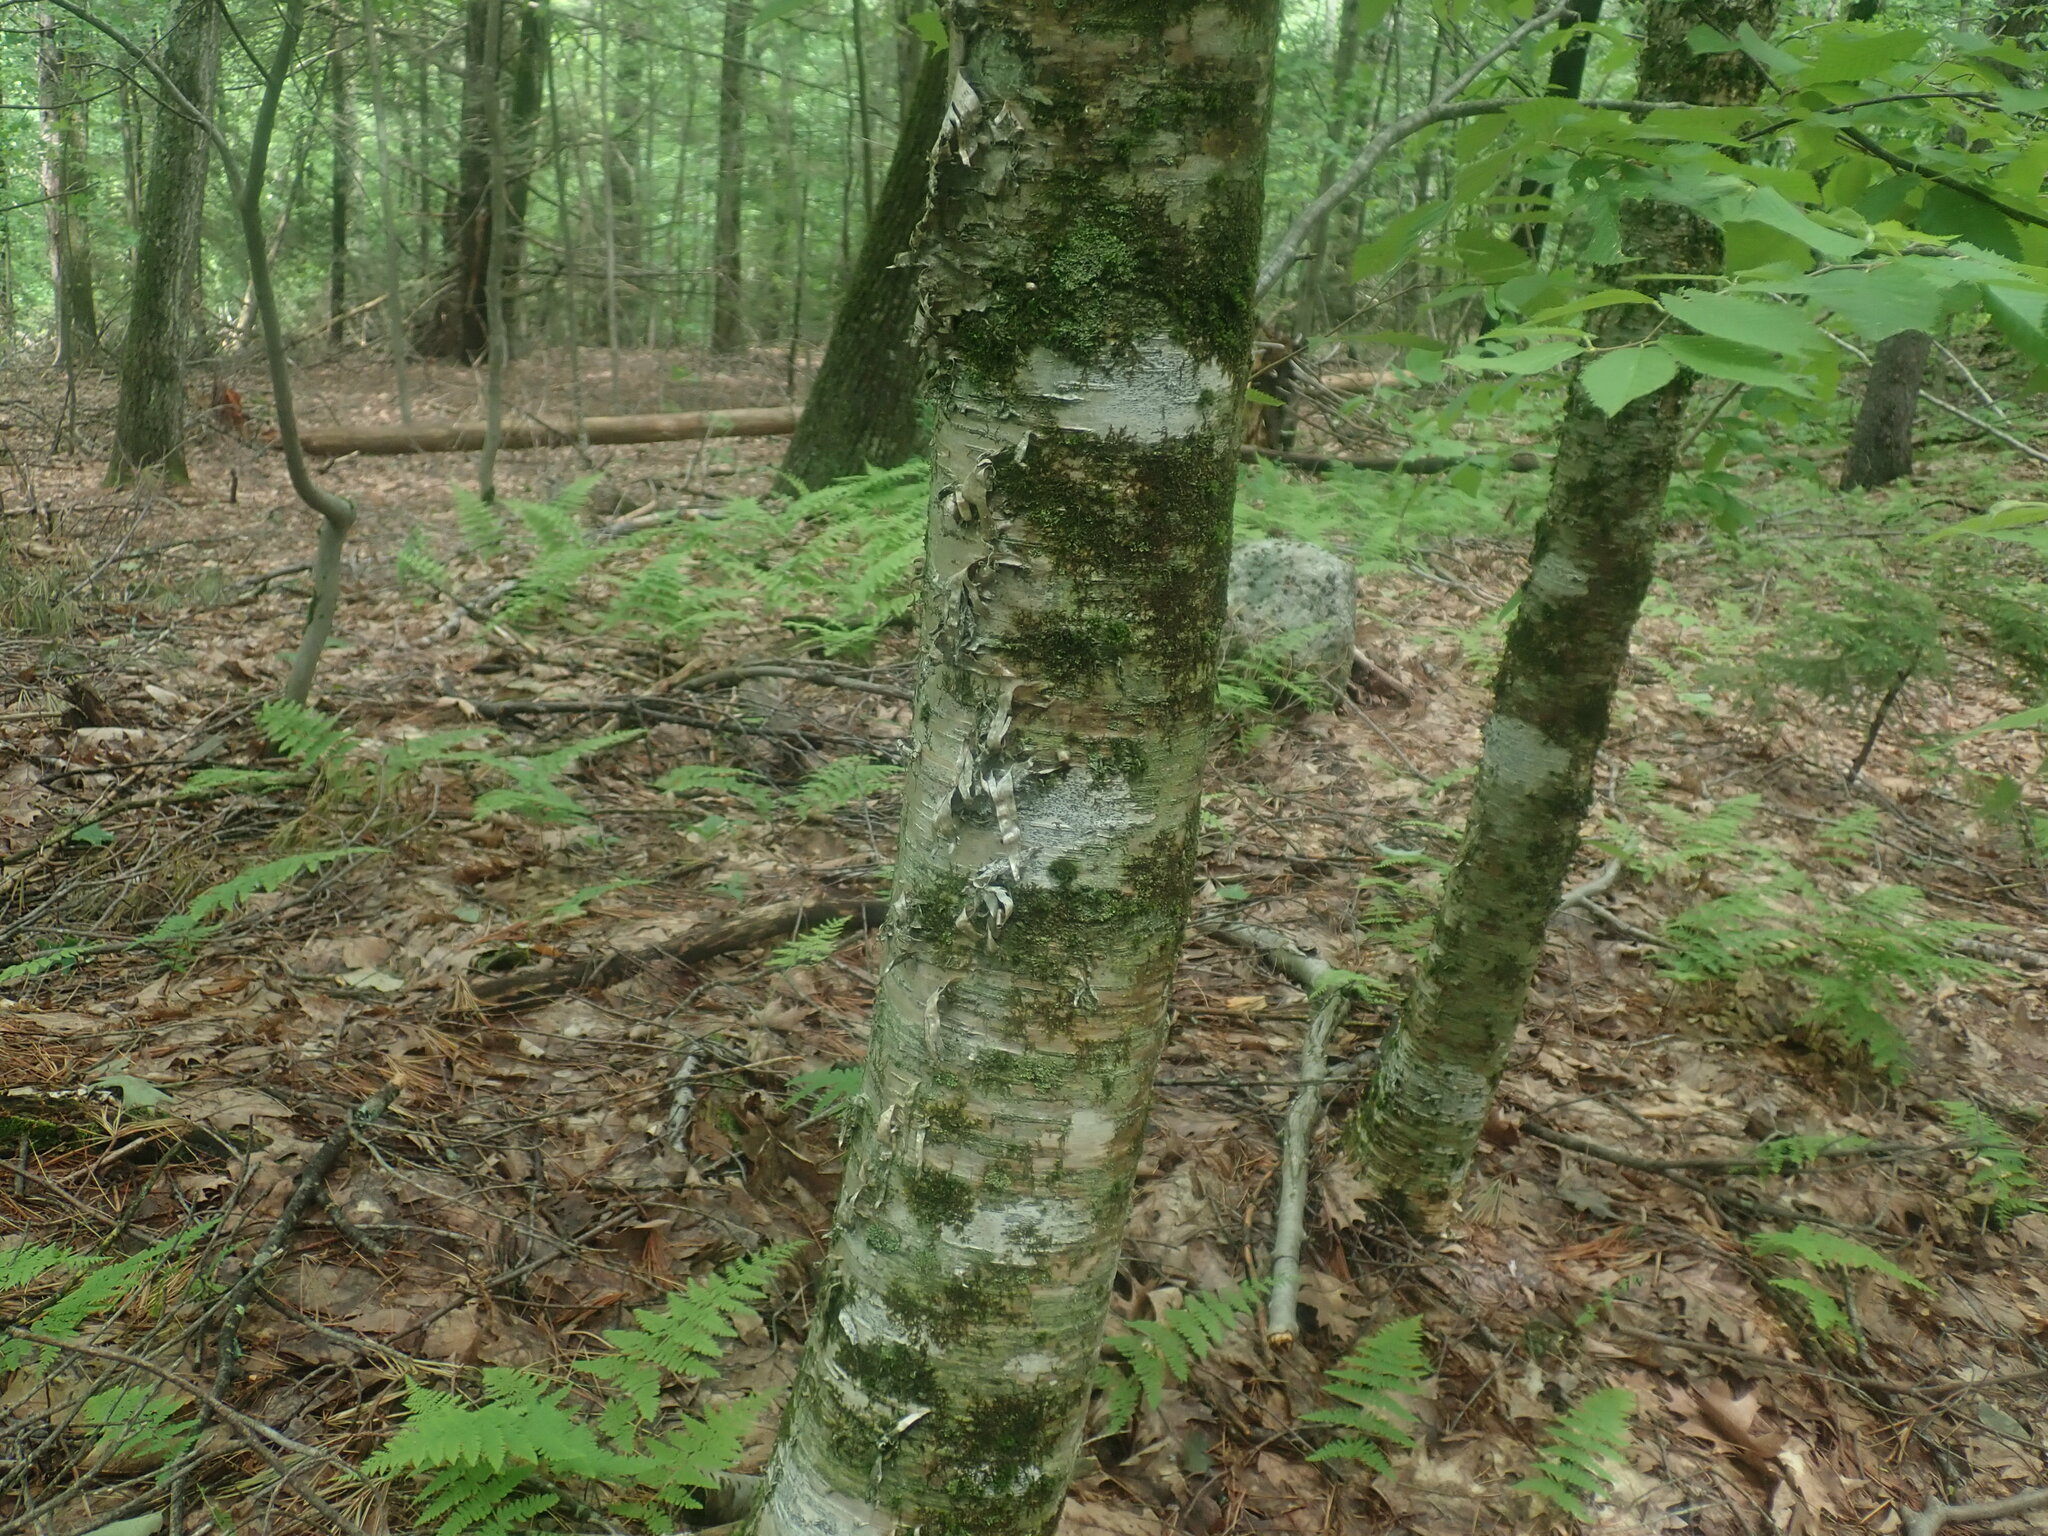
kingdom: Plantae
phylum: Tracheophyta
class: Magnoliopsida
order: Fagales
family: Betulaceae
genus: Betula
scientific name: Betula alleghaniensis
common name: Yellow birch
